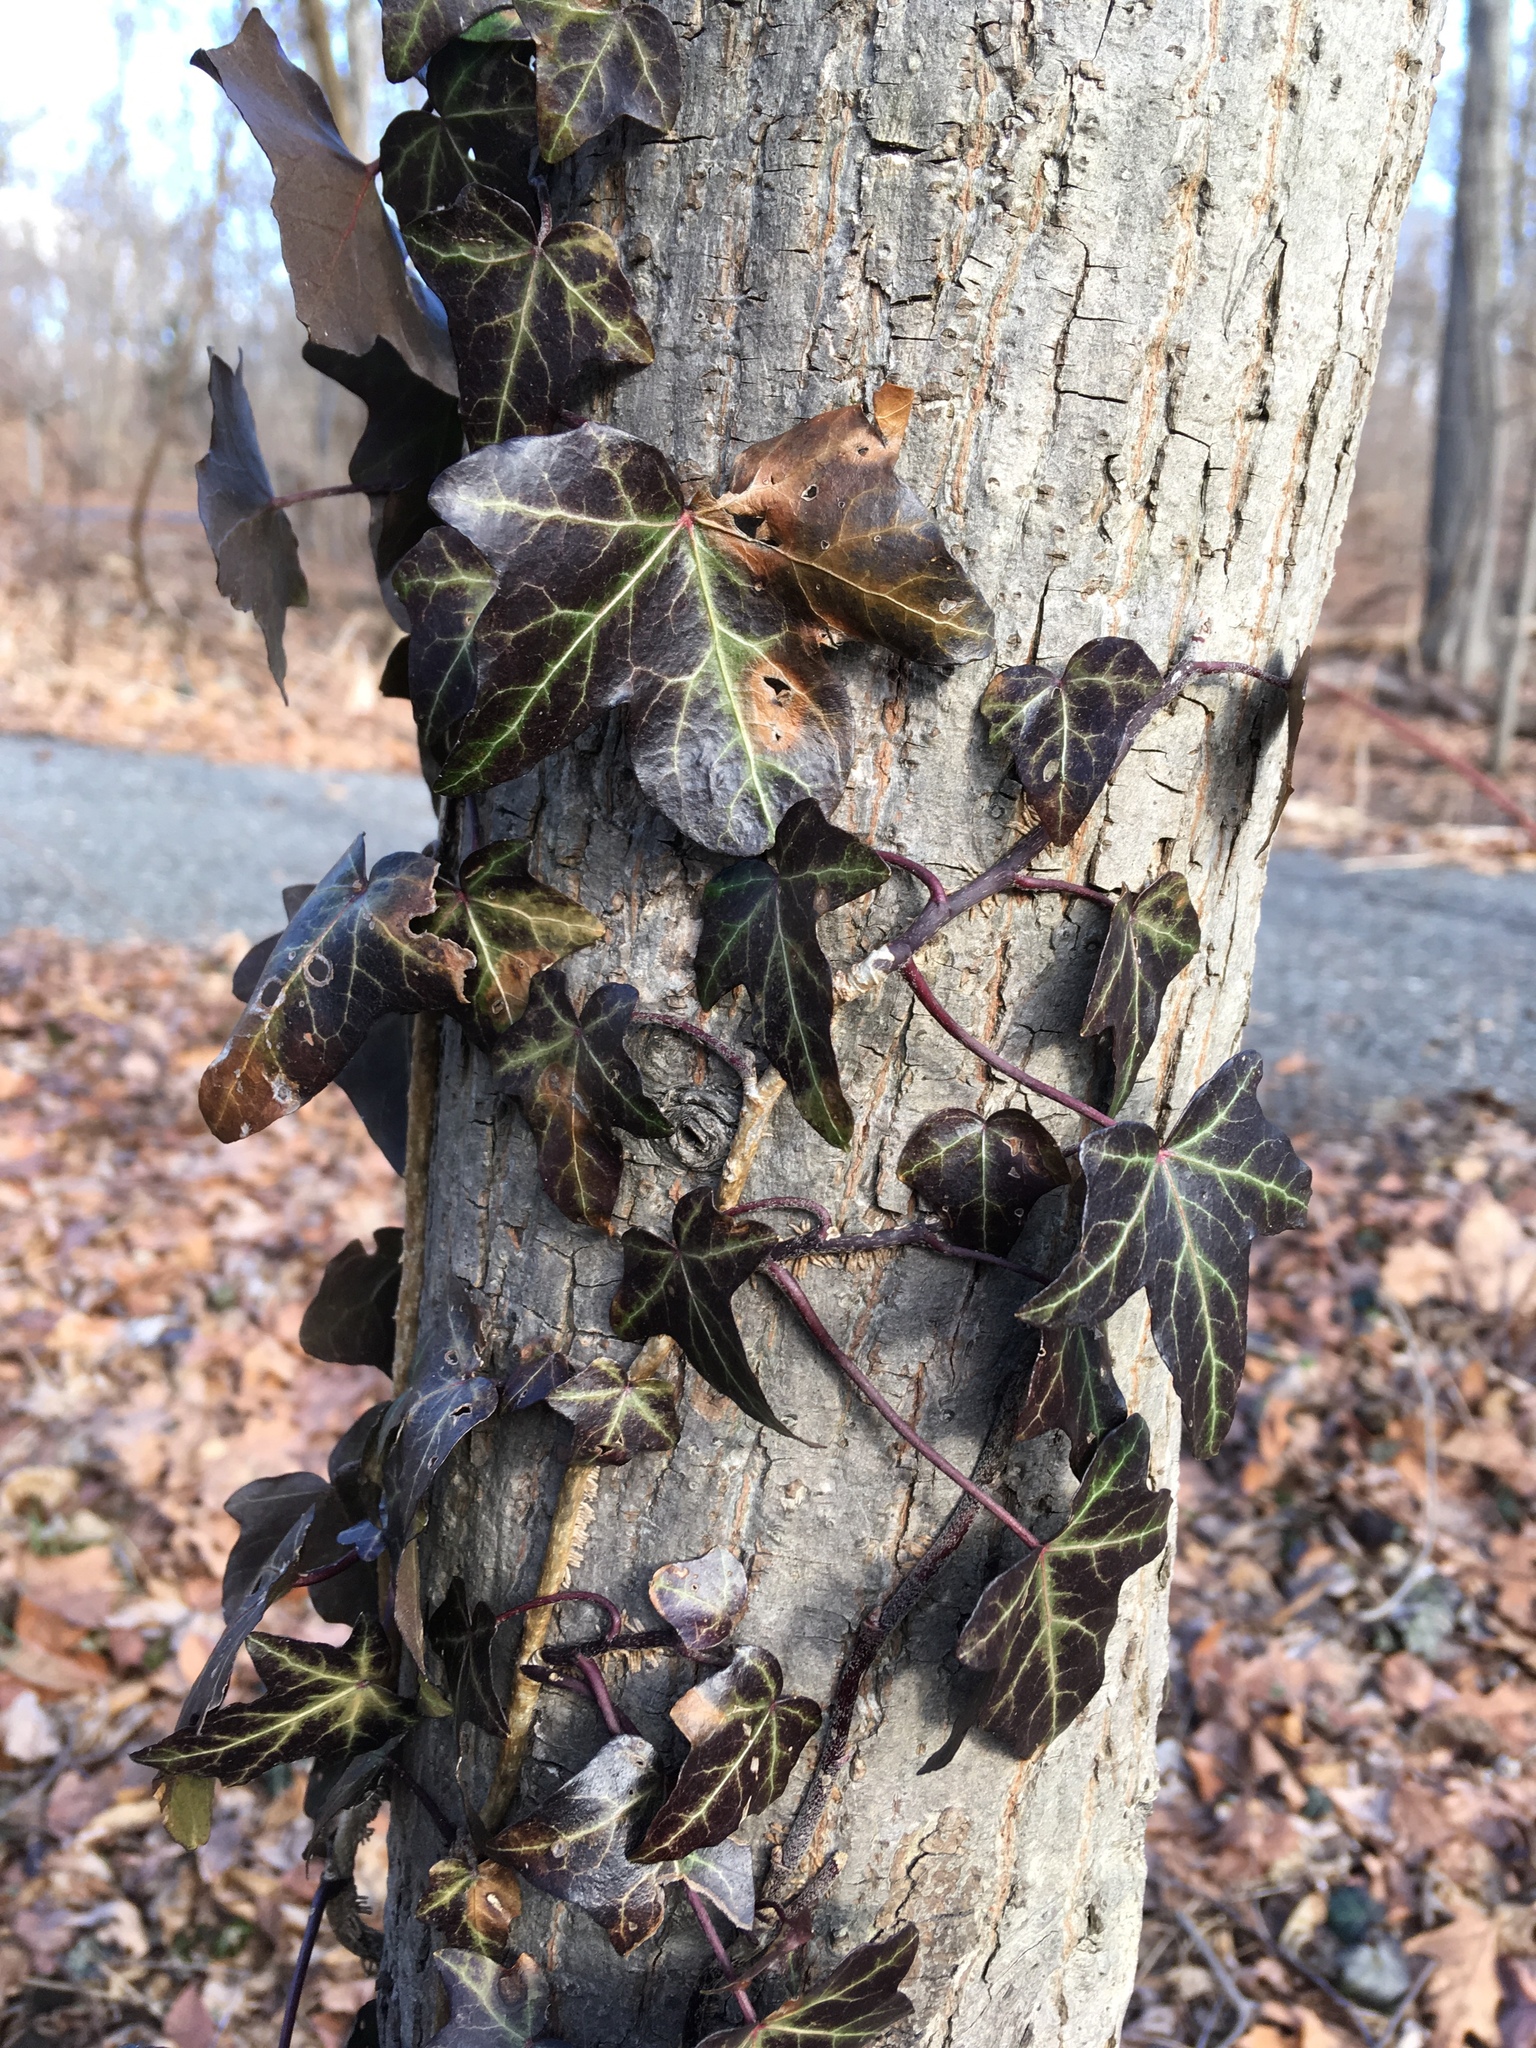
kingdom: Plantae
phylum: Tracheophyta
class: Magnoliopsida
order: Apiales
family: Araliaceae
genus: Hedera
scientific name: Hedera helix
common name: Ivy
